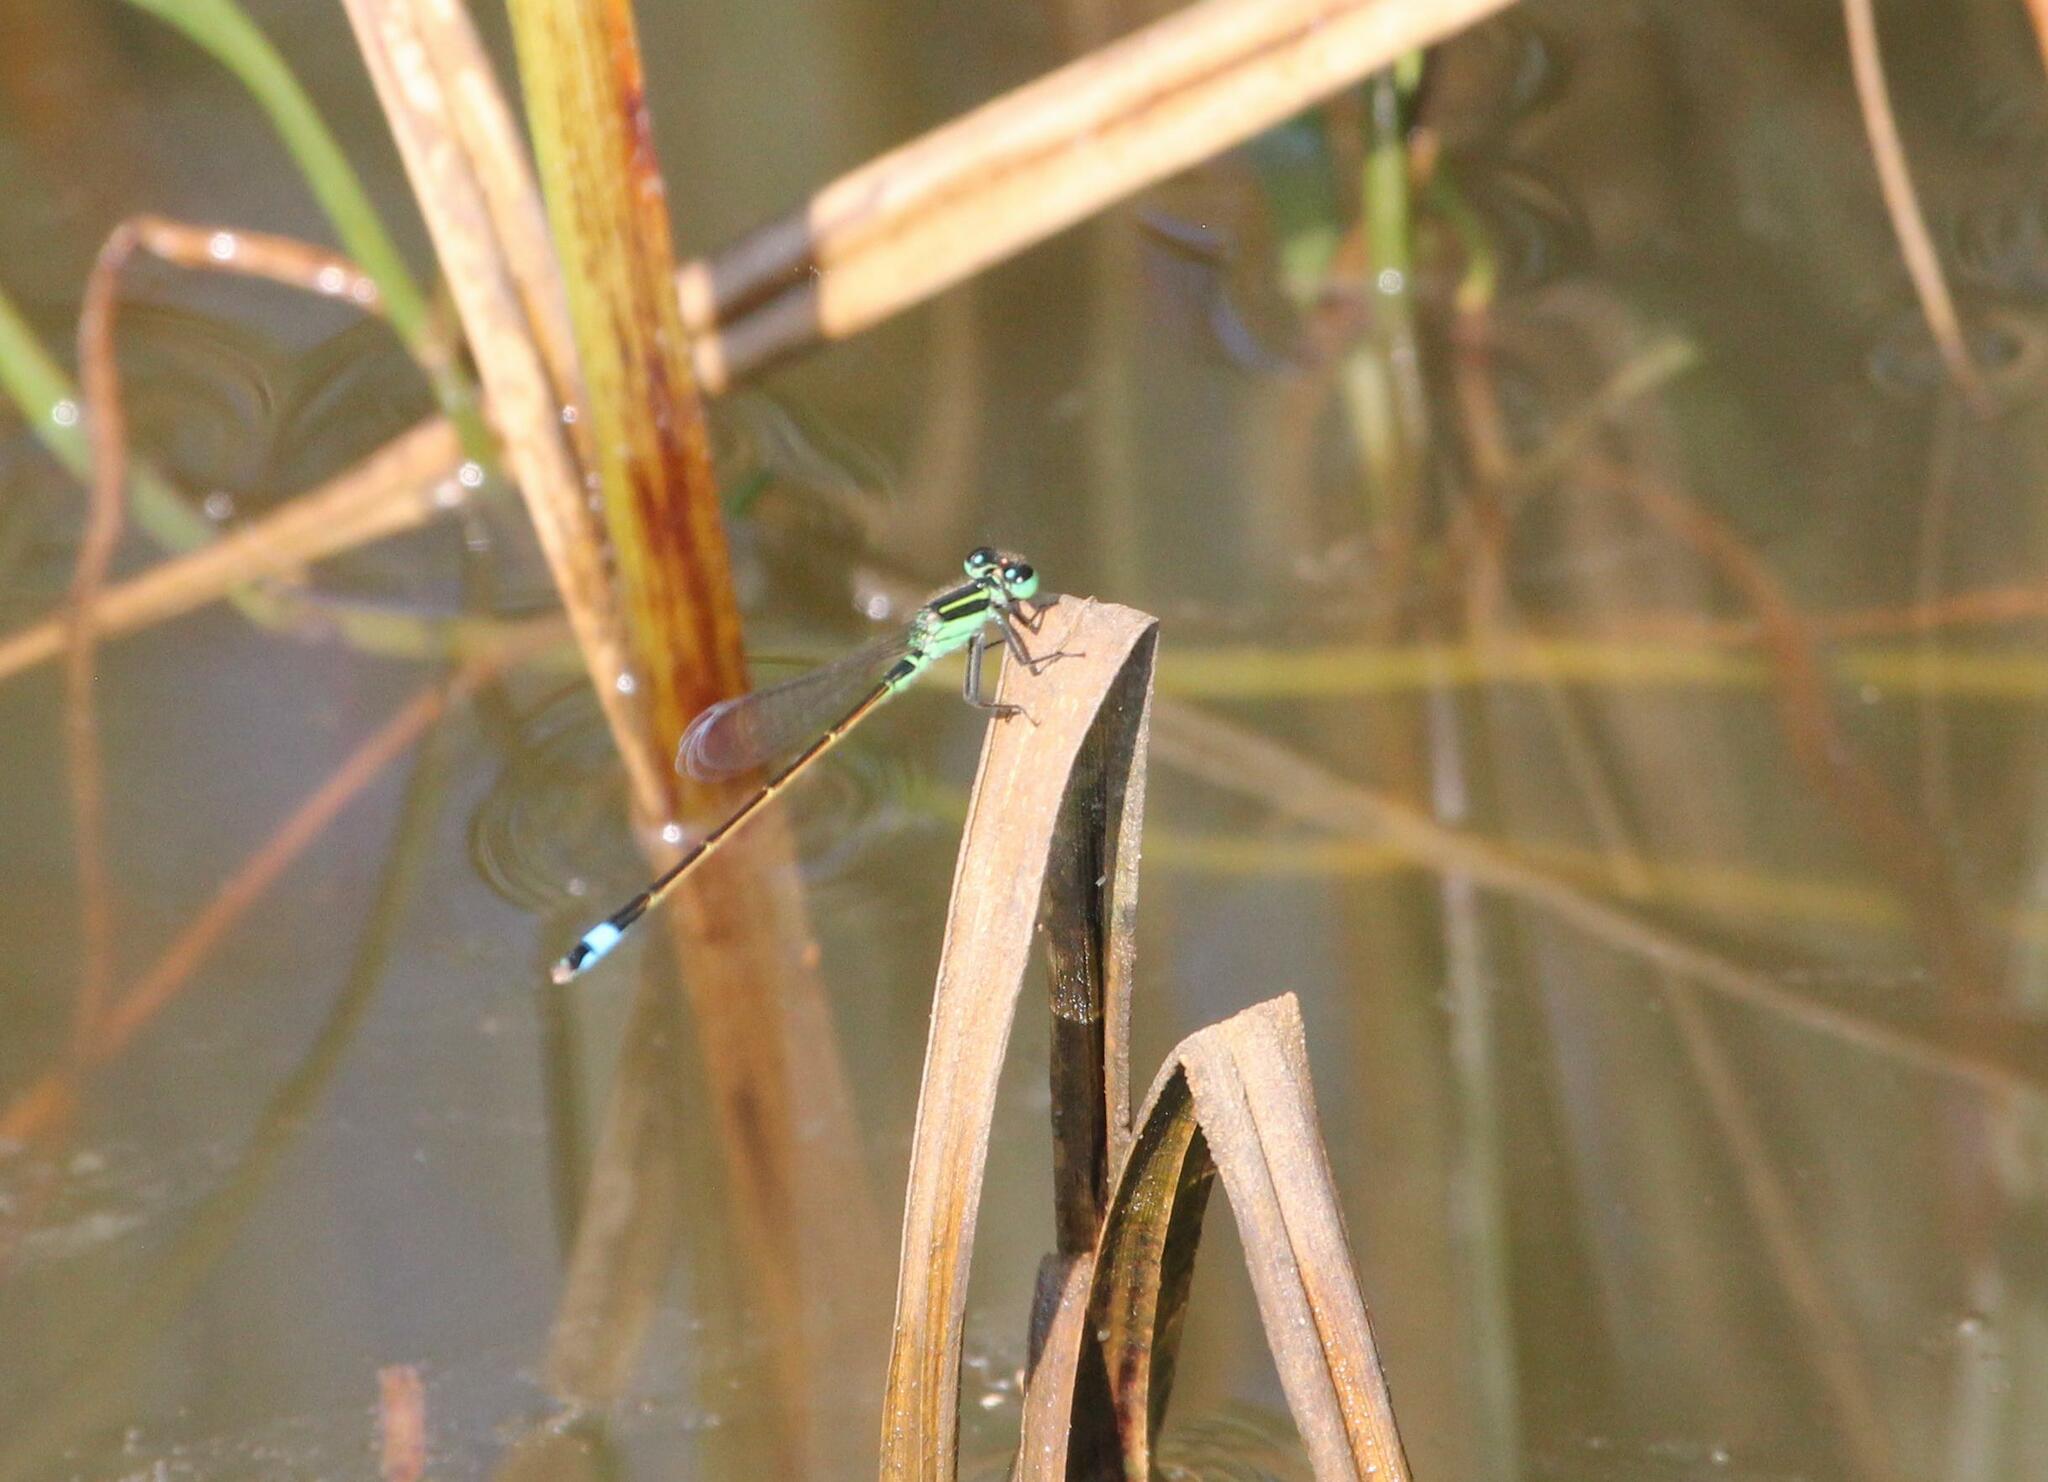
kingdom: Animalia
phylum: Arthropoda
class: Insecta
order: Odonata
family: Coenagrionidae
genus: Ischnura
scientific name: Ischnura ramburii
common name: Rambur's forktail
